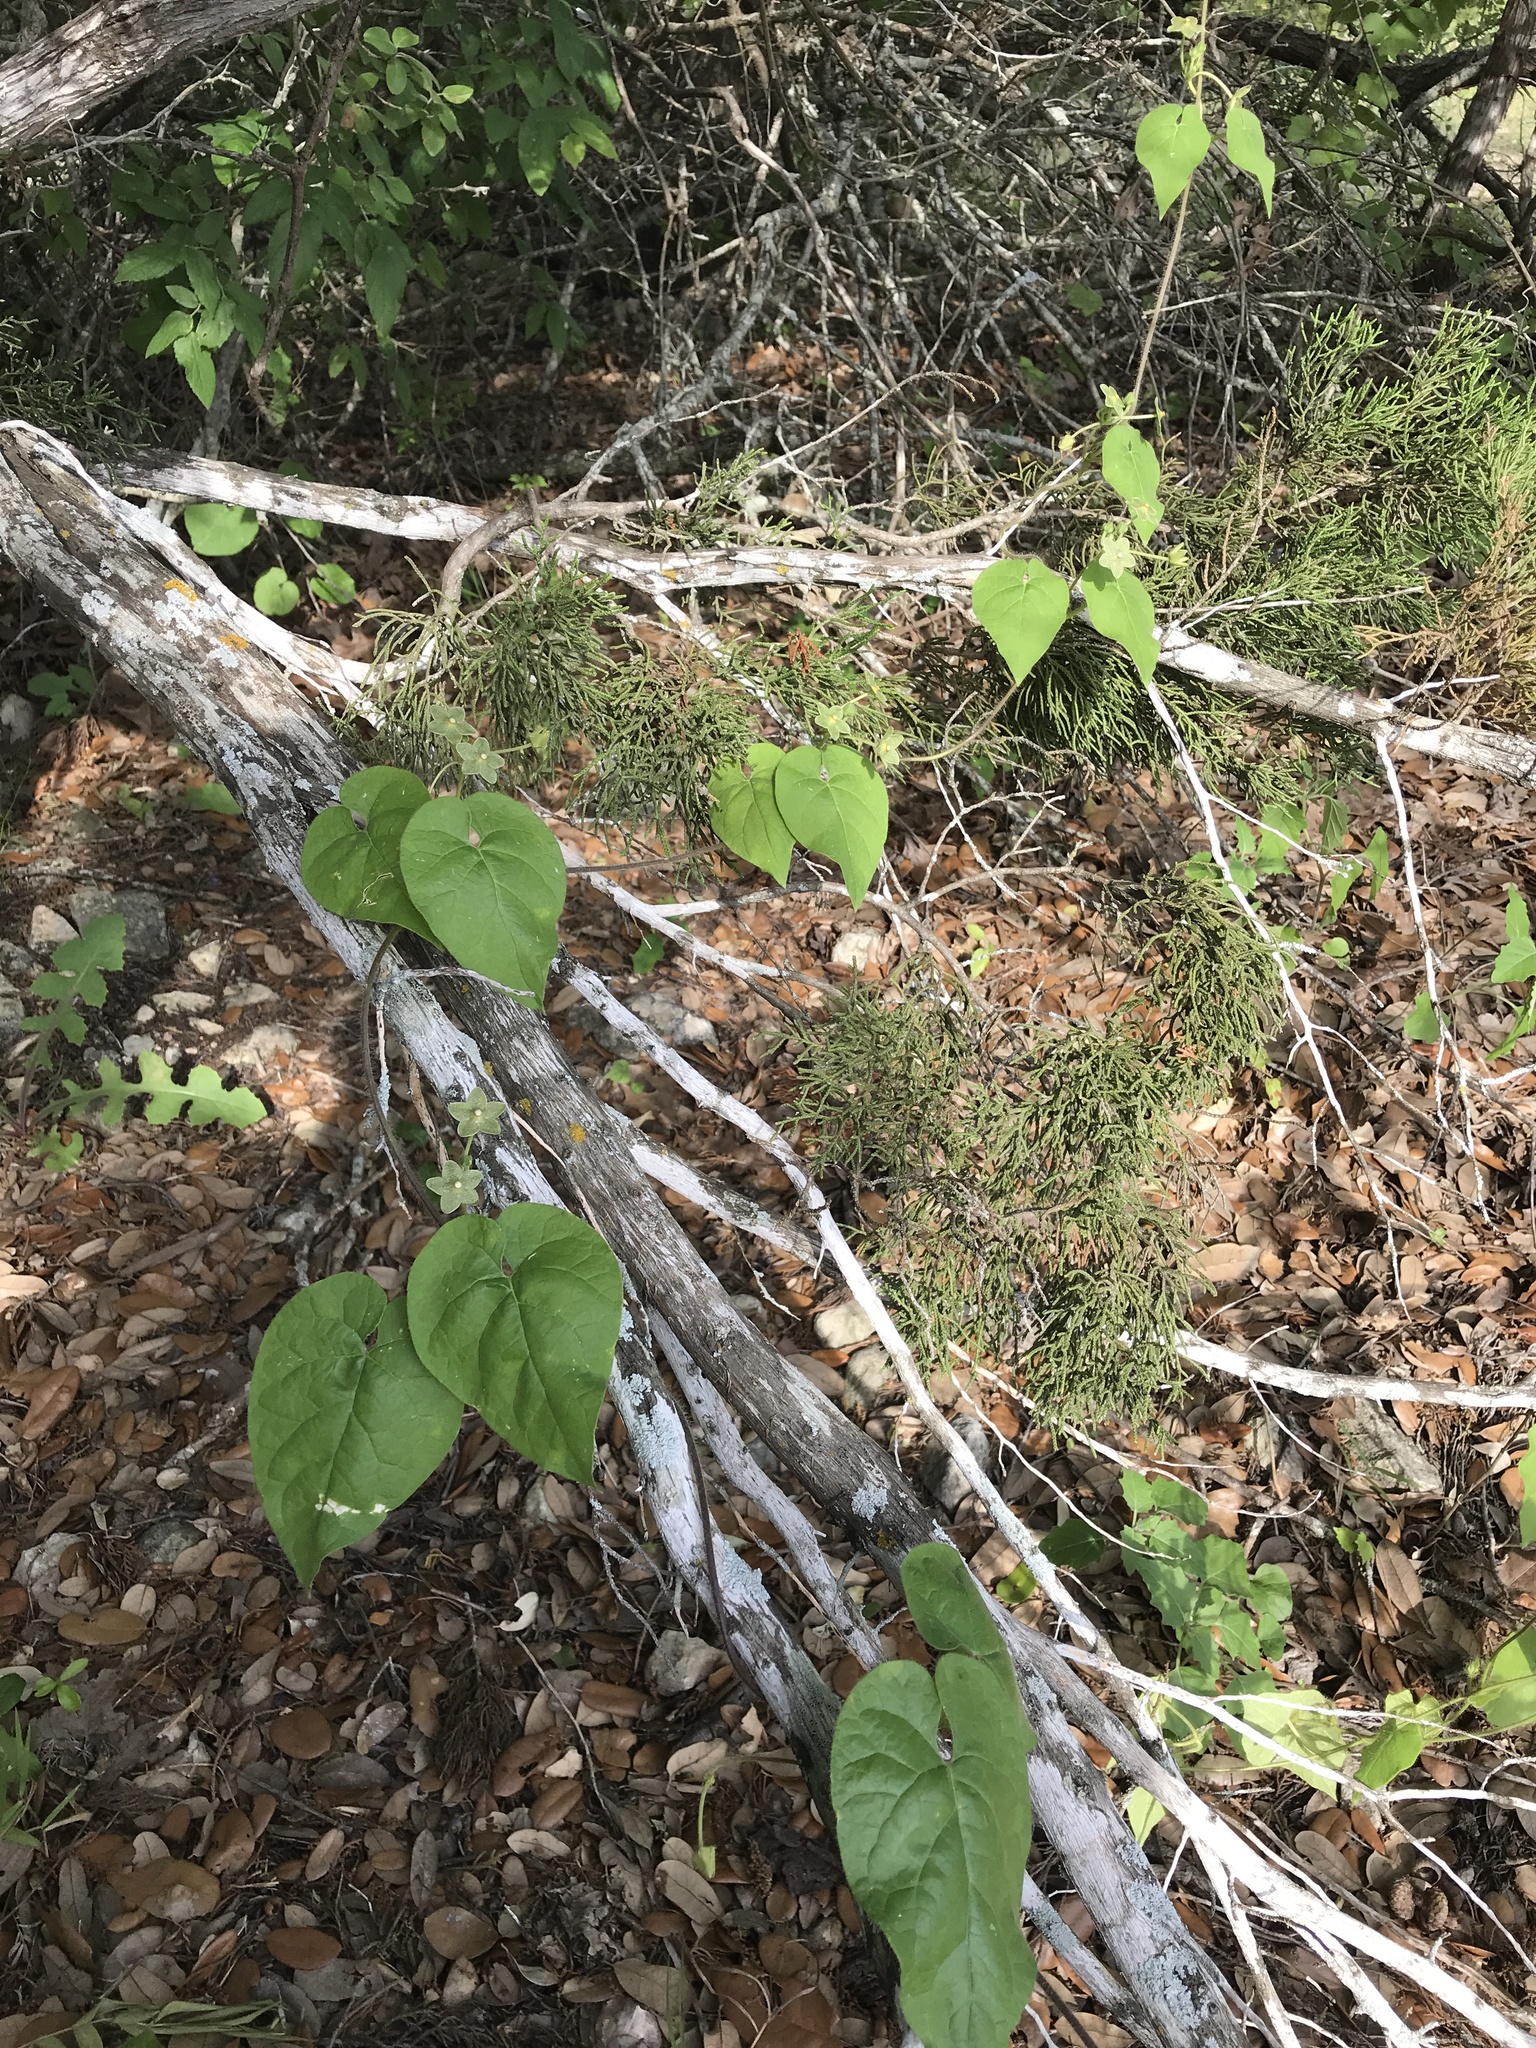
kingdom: Plantae
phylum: Tracheophyta
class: Magnoliopsida
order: Gentianales
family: Apocynaceae
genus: Dictyanthus
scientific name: Dictyanthus reticulatus
